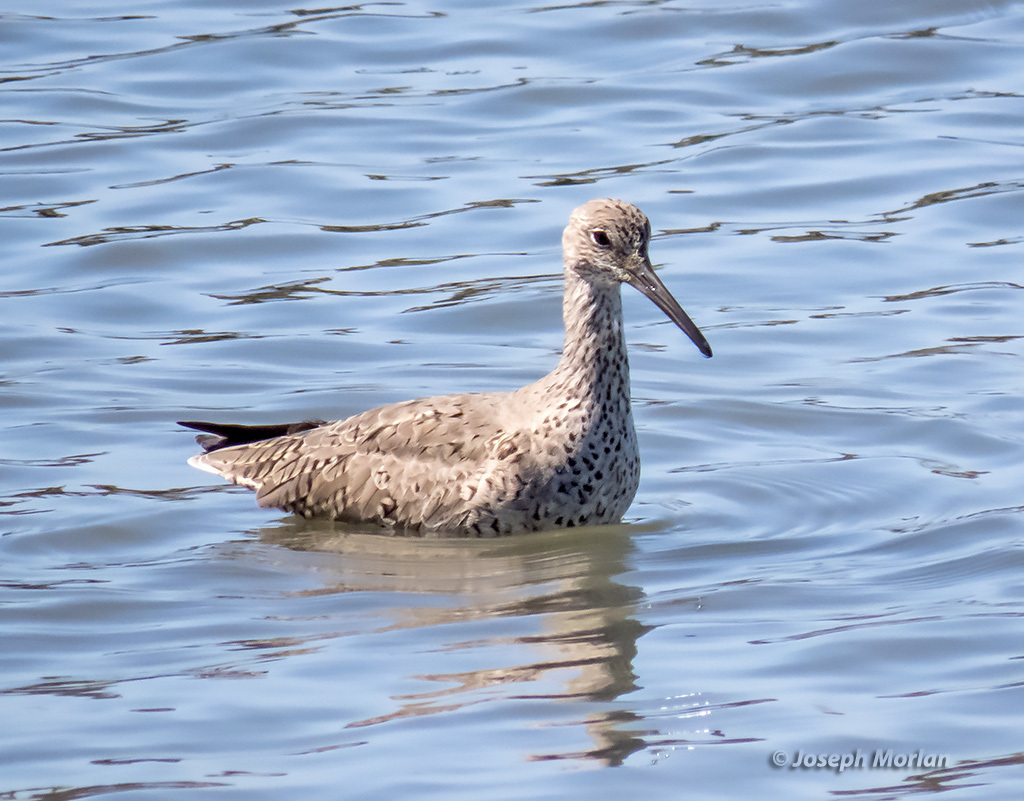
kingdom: Animalia
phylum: Chordata
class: Aves
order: Charadriiformes
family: Scolopacidae
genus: Tringa
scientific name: Tringa semipalmata
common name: Willet
